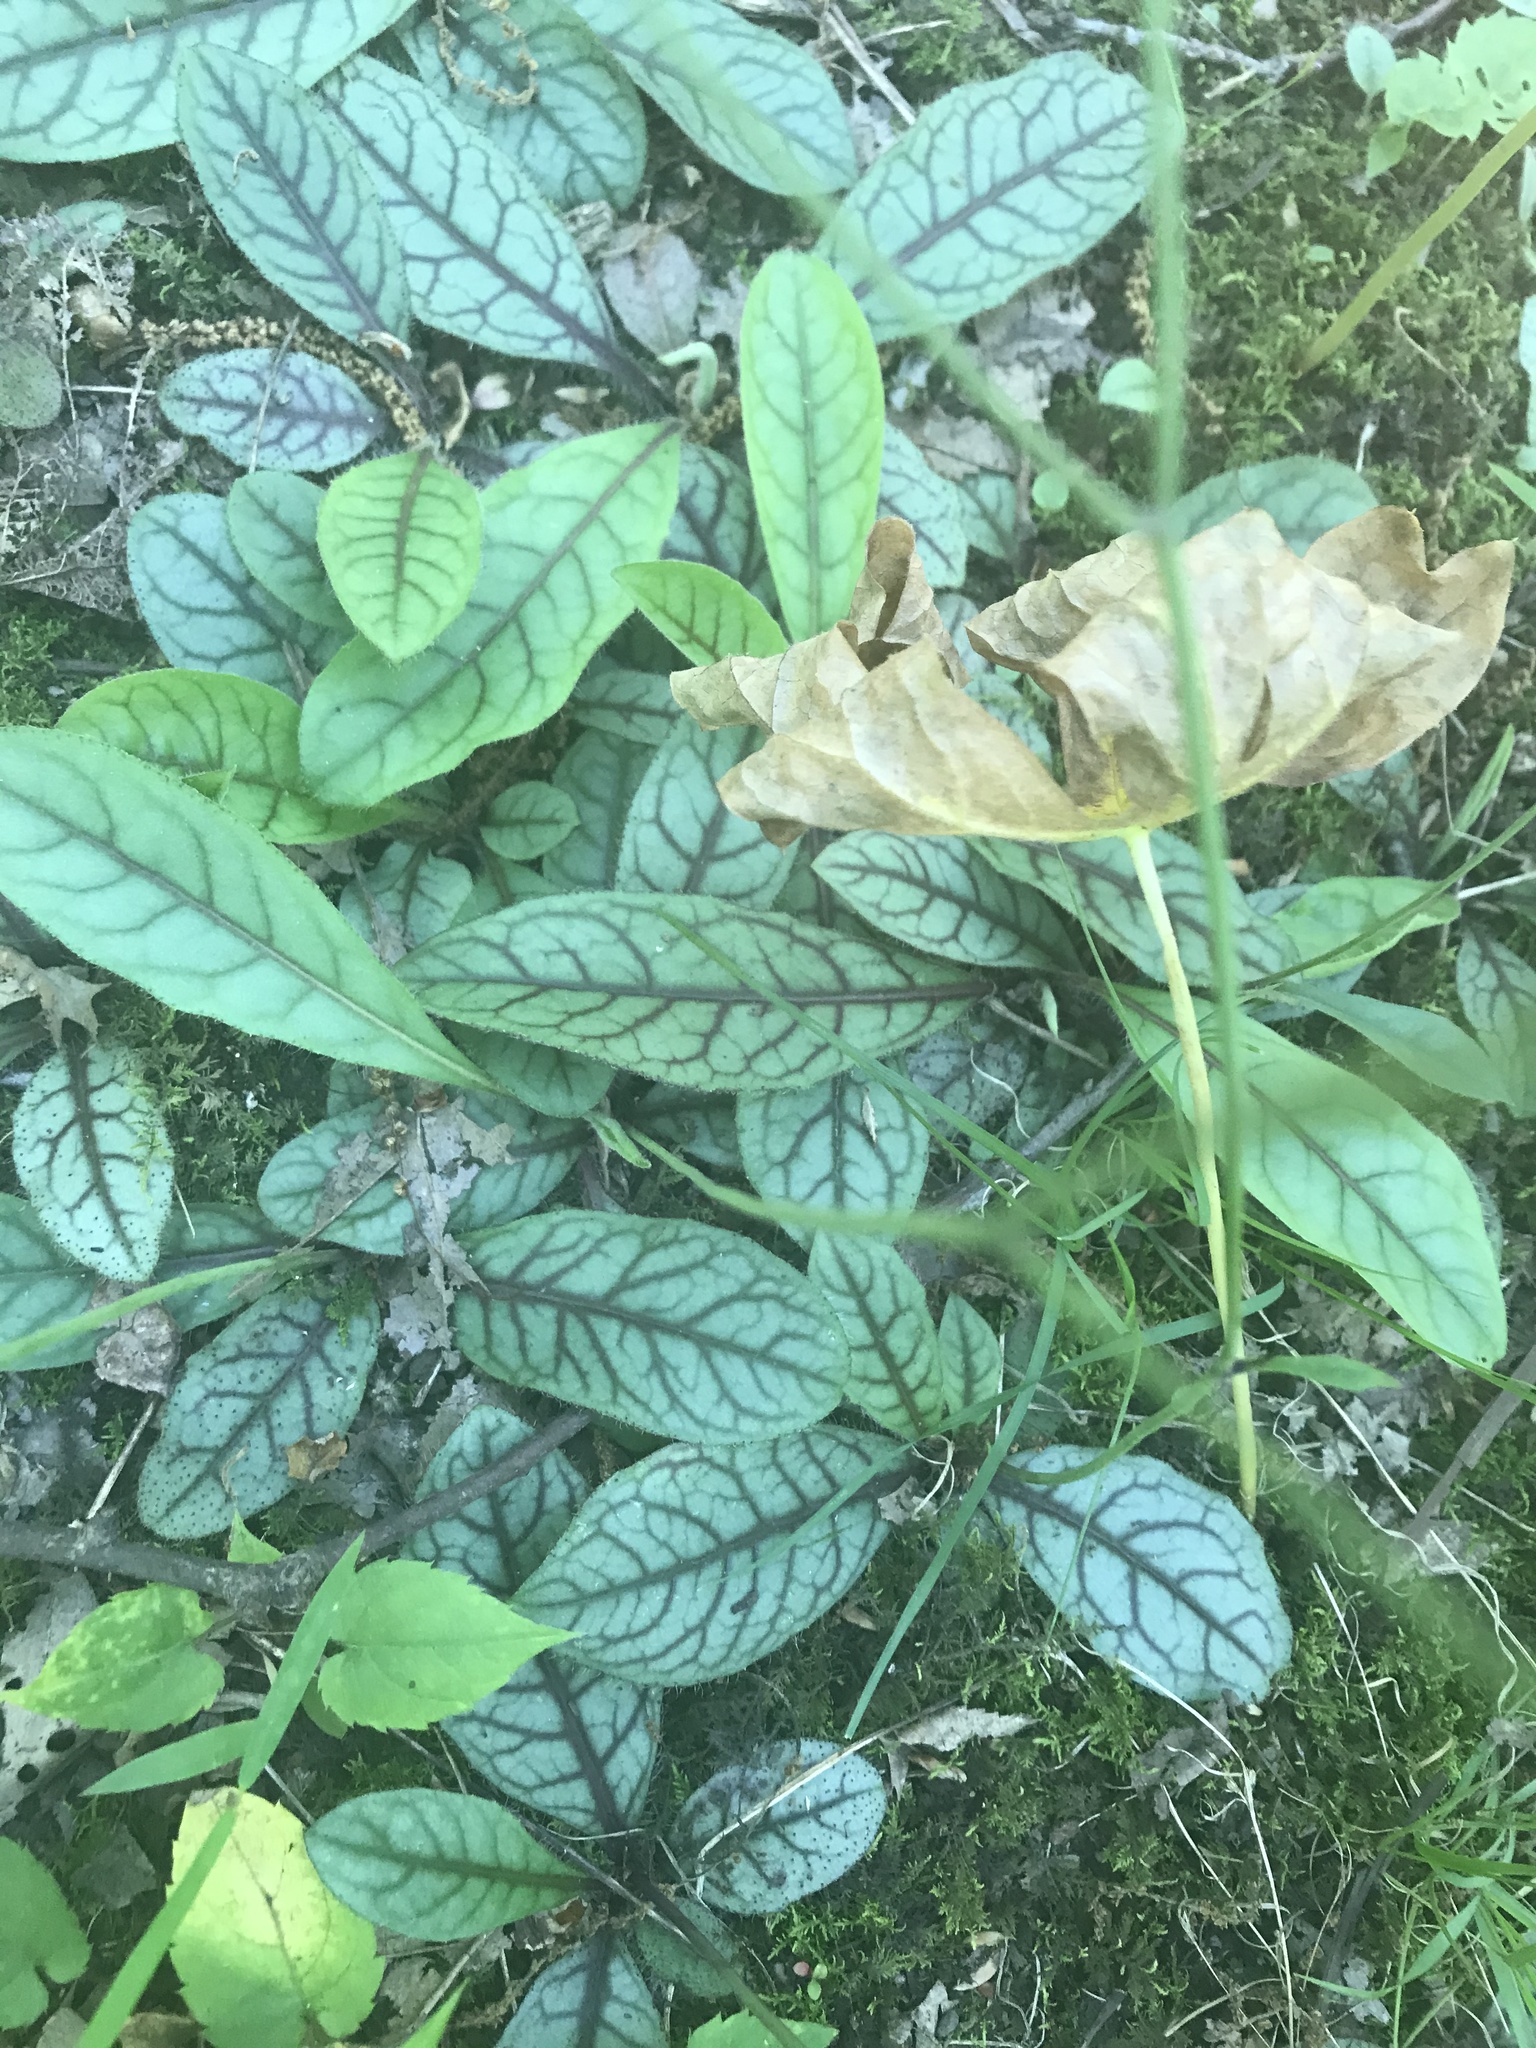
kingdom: Plantae
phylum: Tracheophyta
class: Magnoliopsida
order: Asterales
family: Asteraceae
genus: Hieracium
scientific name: Hieracium venosum
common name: Rattlesnake hawkweed
